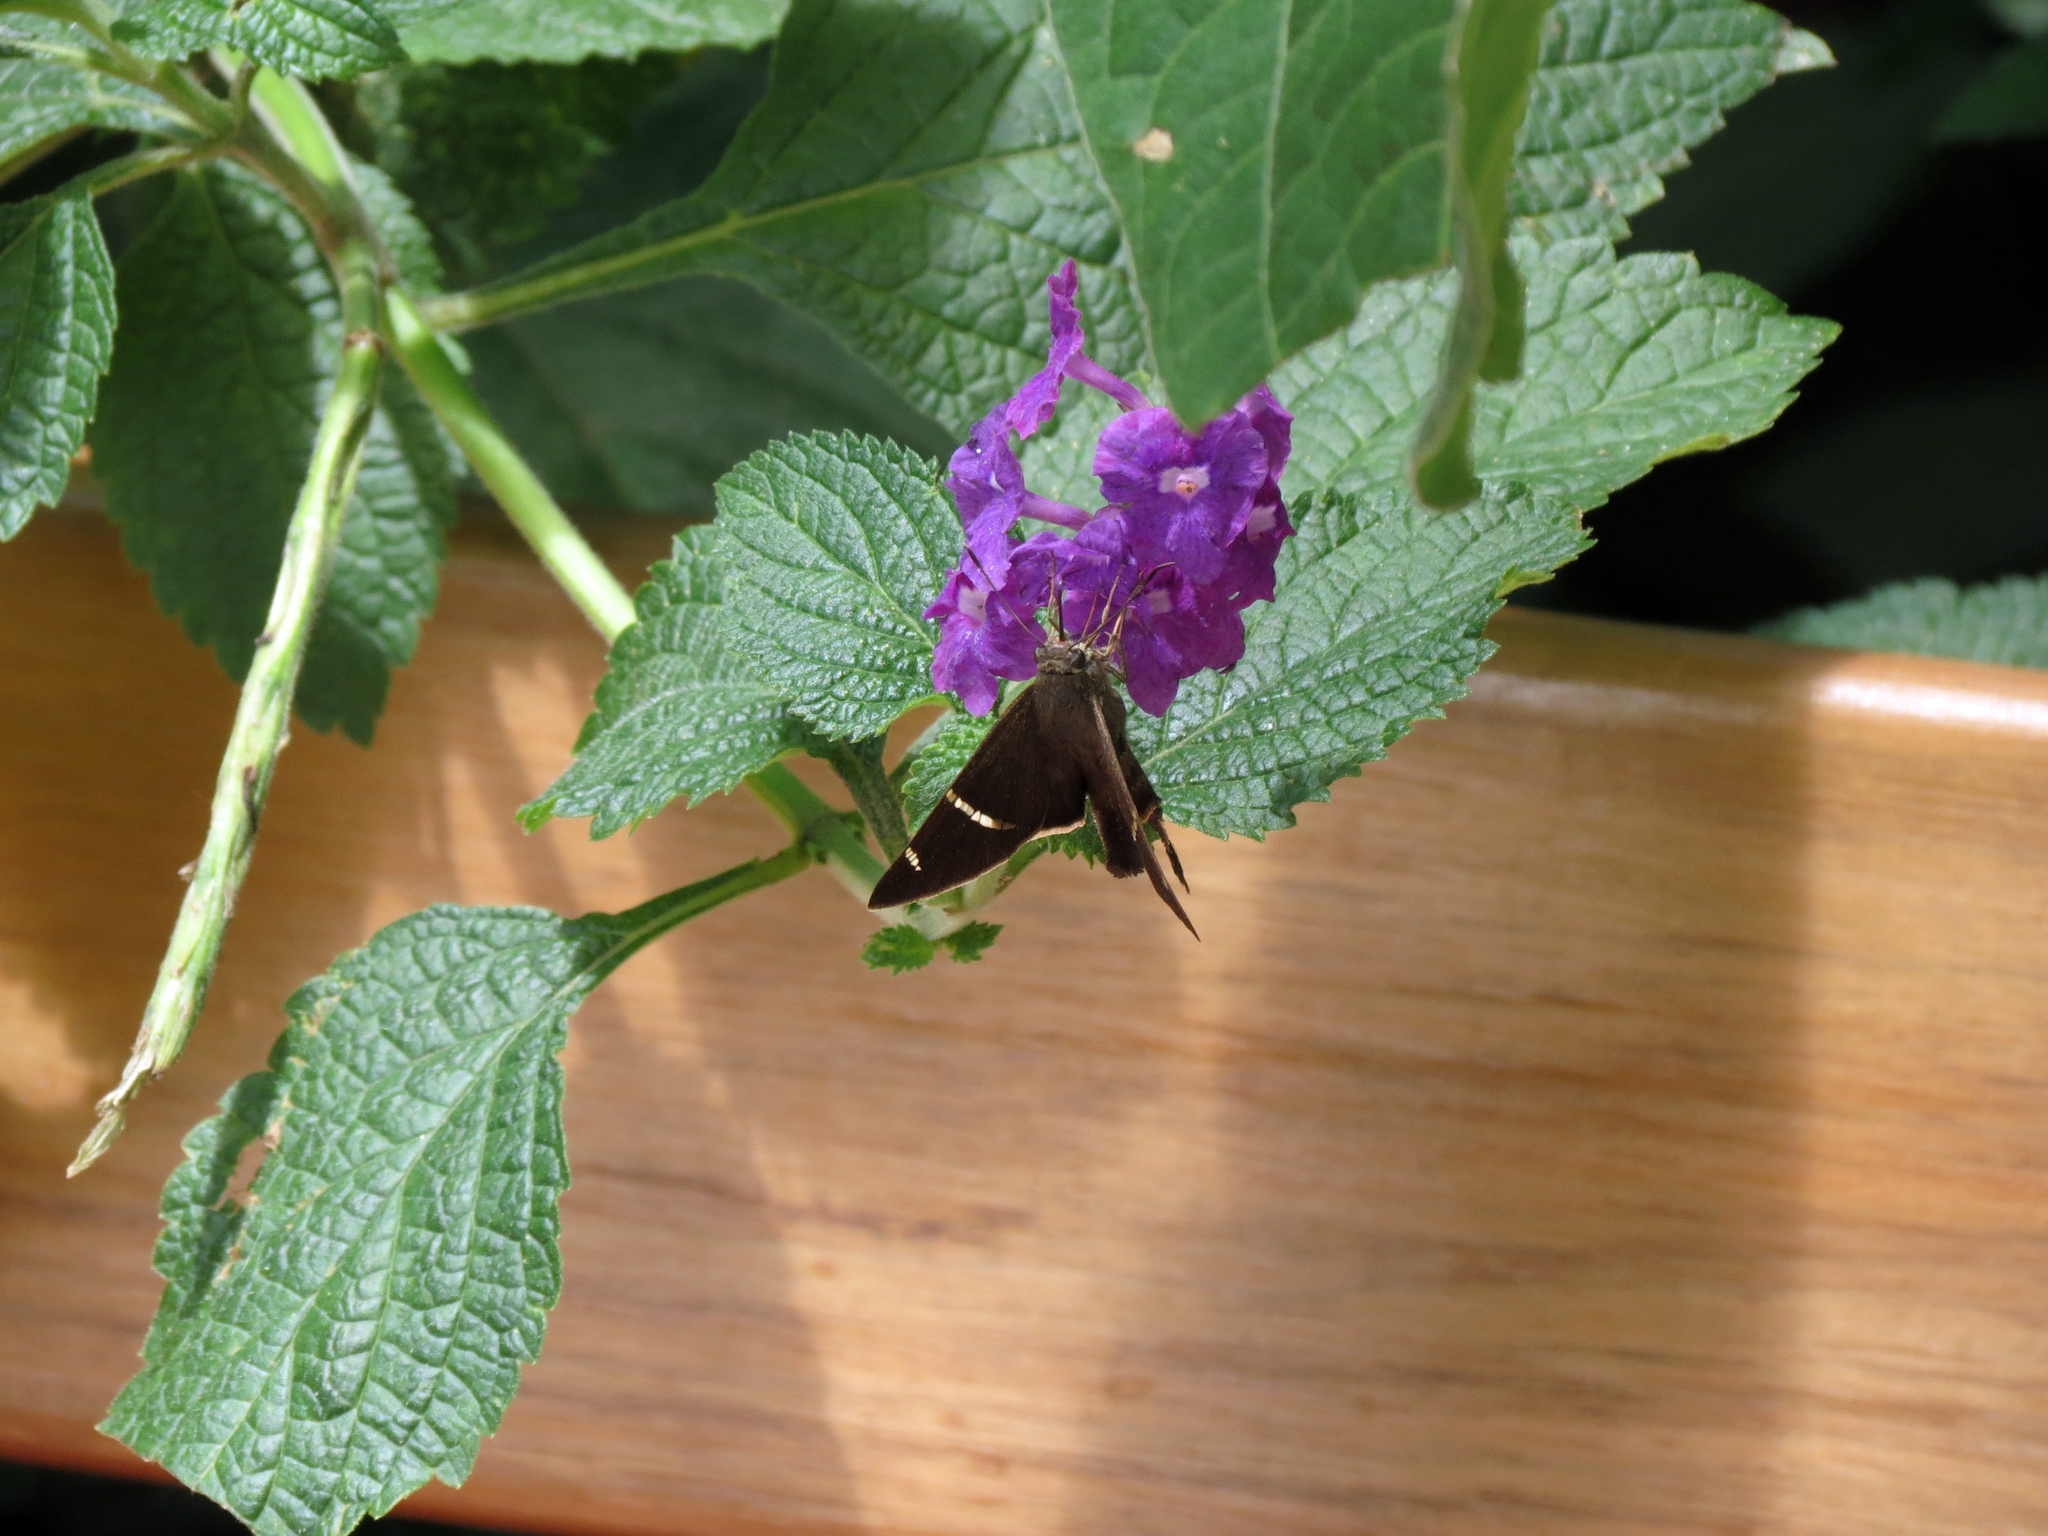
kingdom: Animalia
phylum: Arthropoda
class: Insecta
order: Lepidoptera
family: Hesperiidae
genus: Chioides
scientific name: Chioides catillus
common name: Silverbanded skipper
